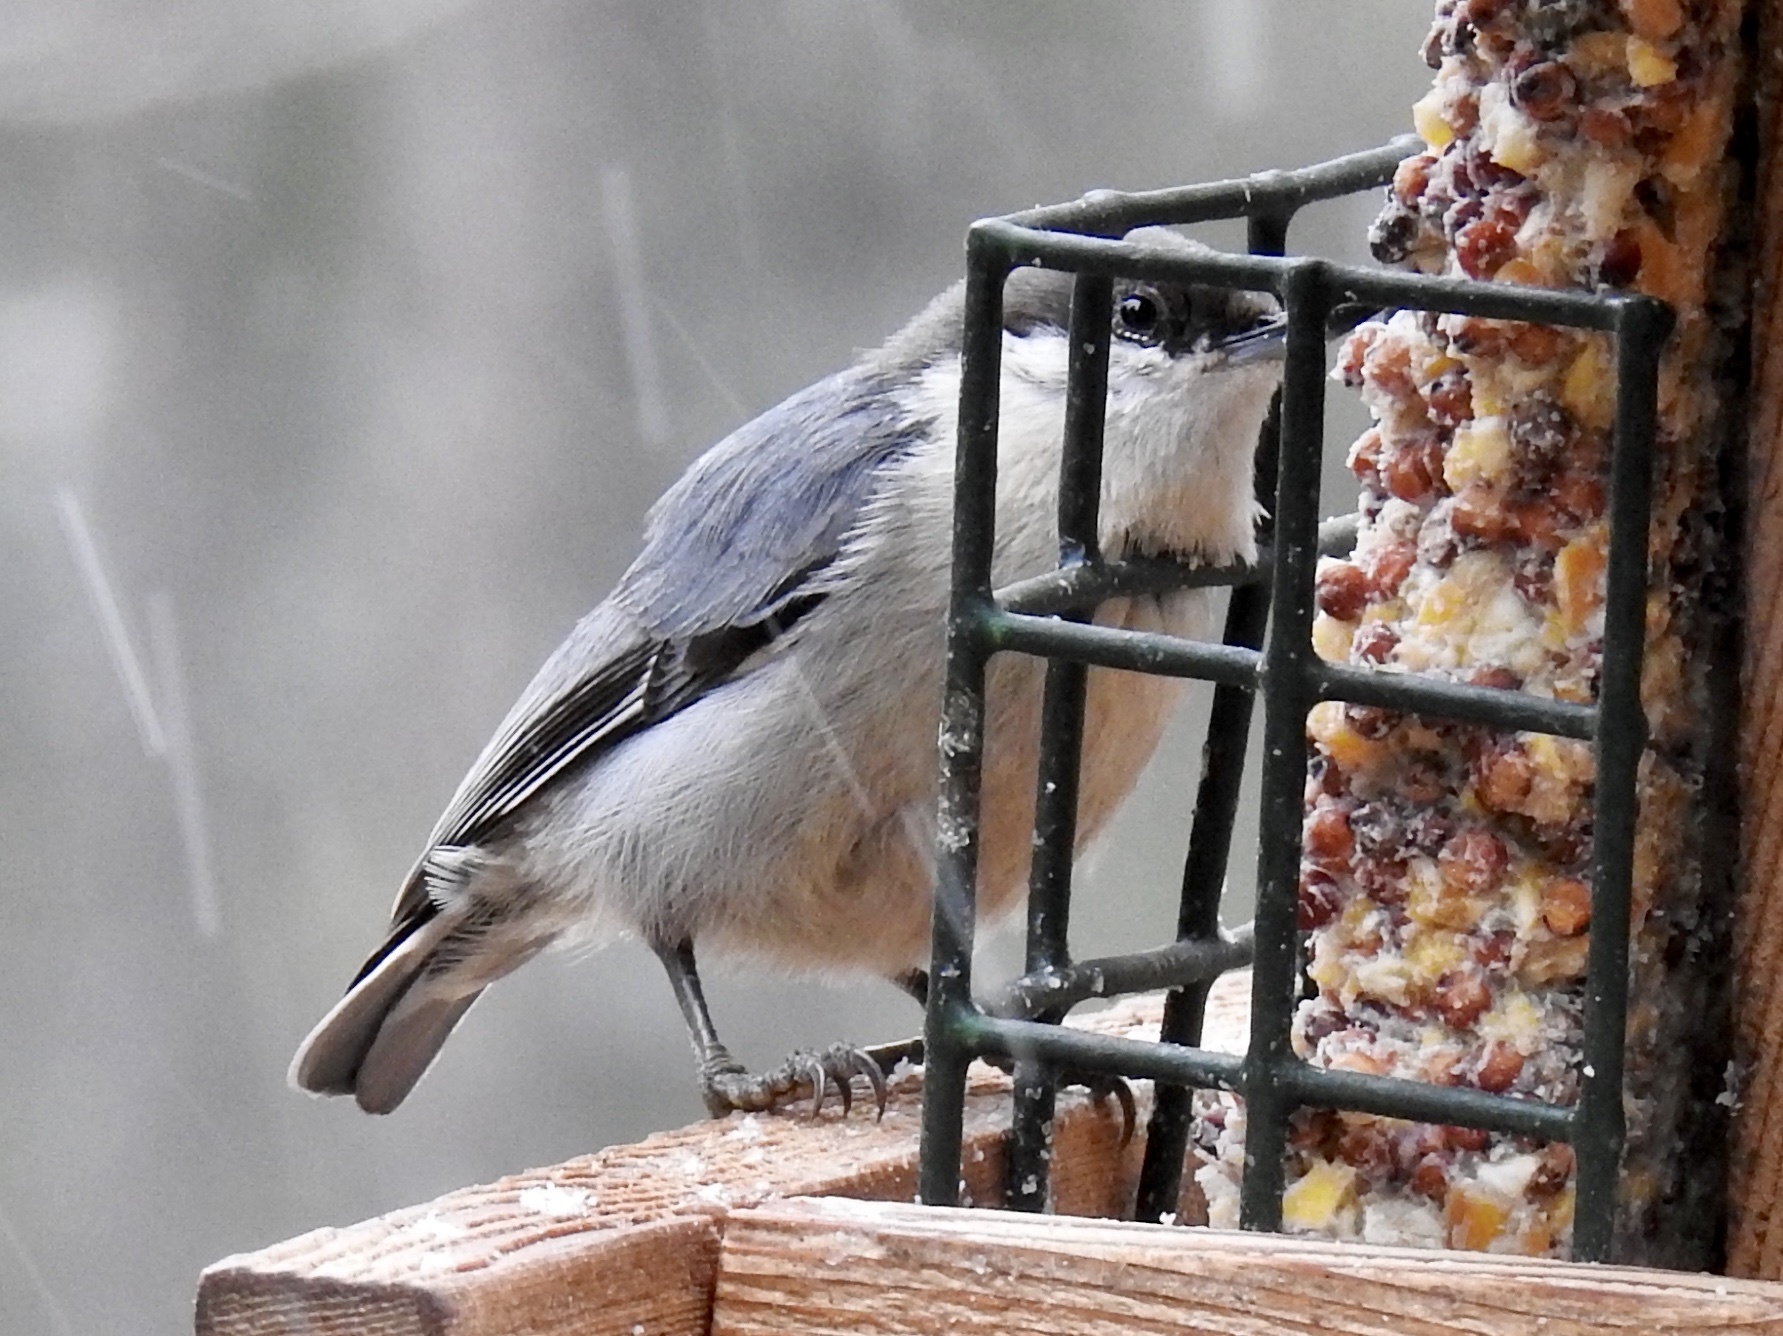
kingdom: Animalia
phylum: Chordata
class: Aves
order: Passeriformes
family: Sittidae
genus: Sitta
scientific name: Sitta pygmaea
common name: Pygmy nuthatch
